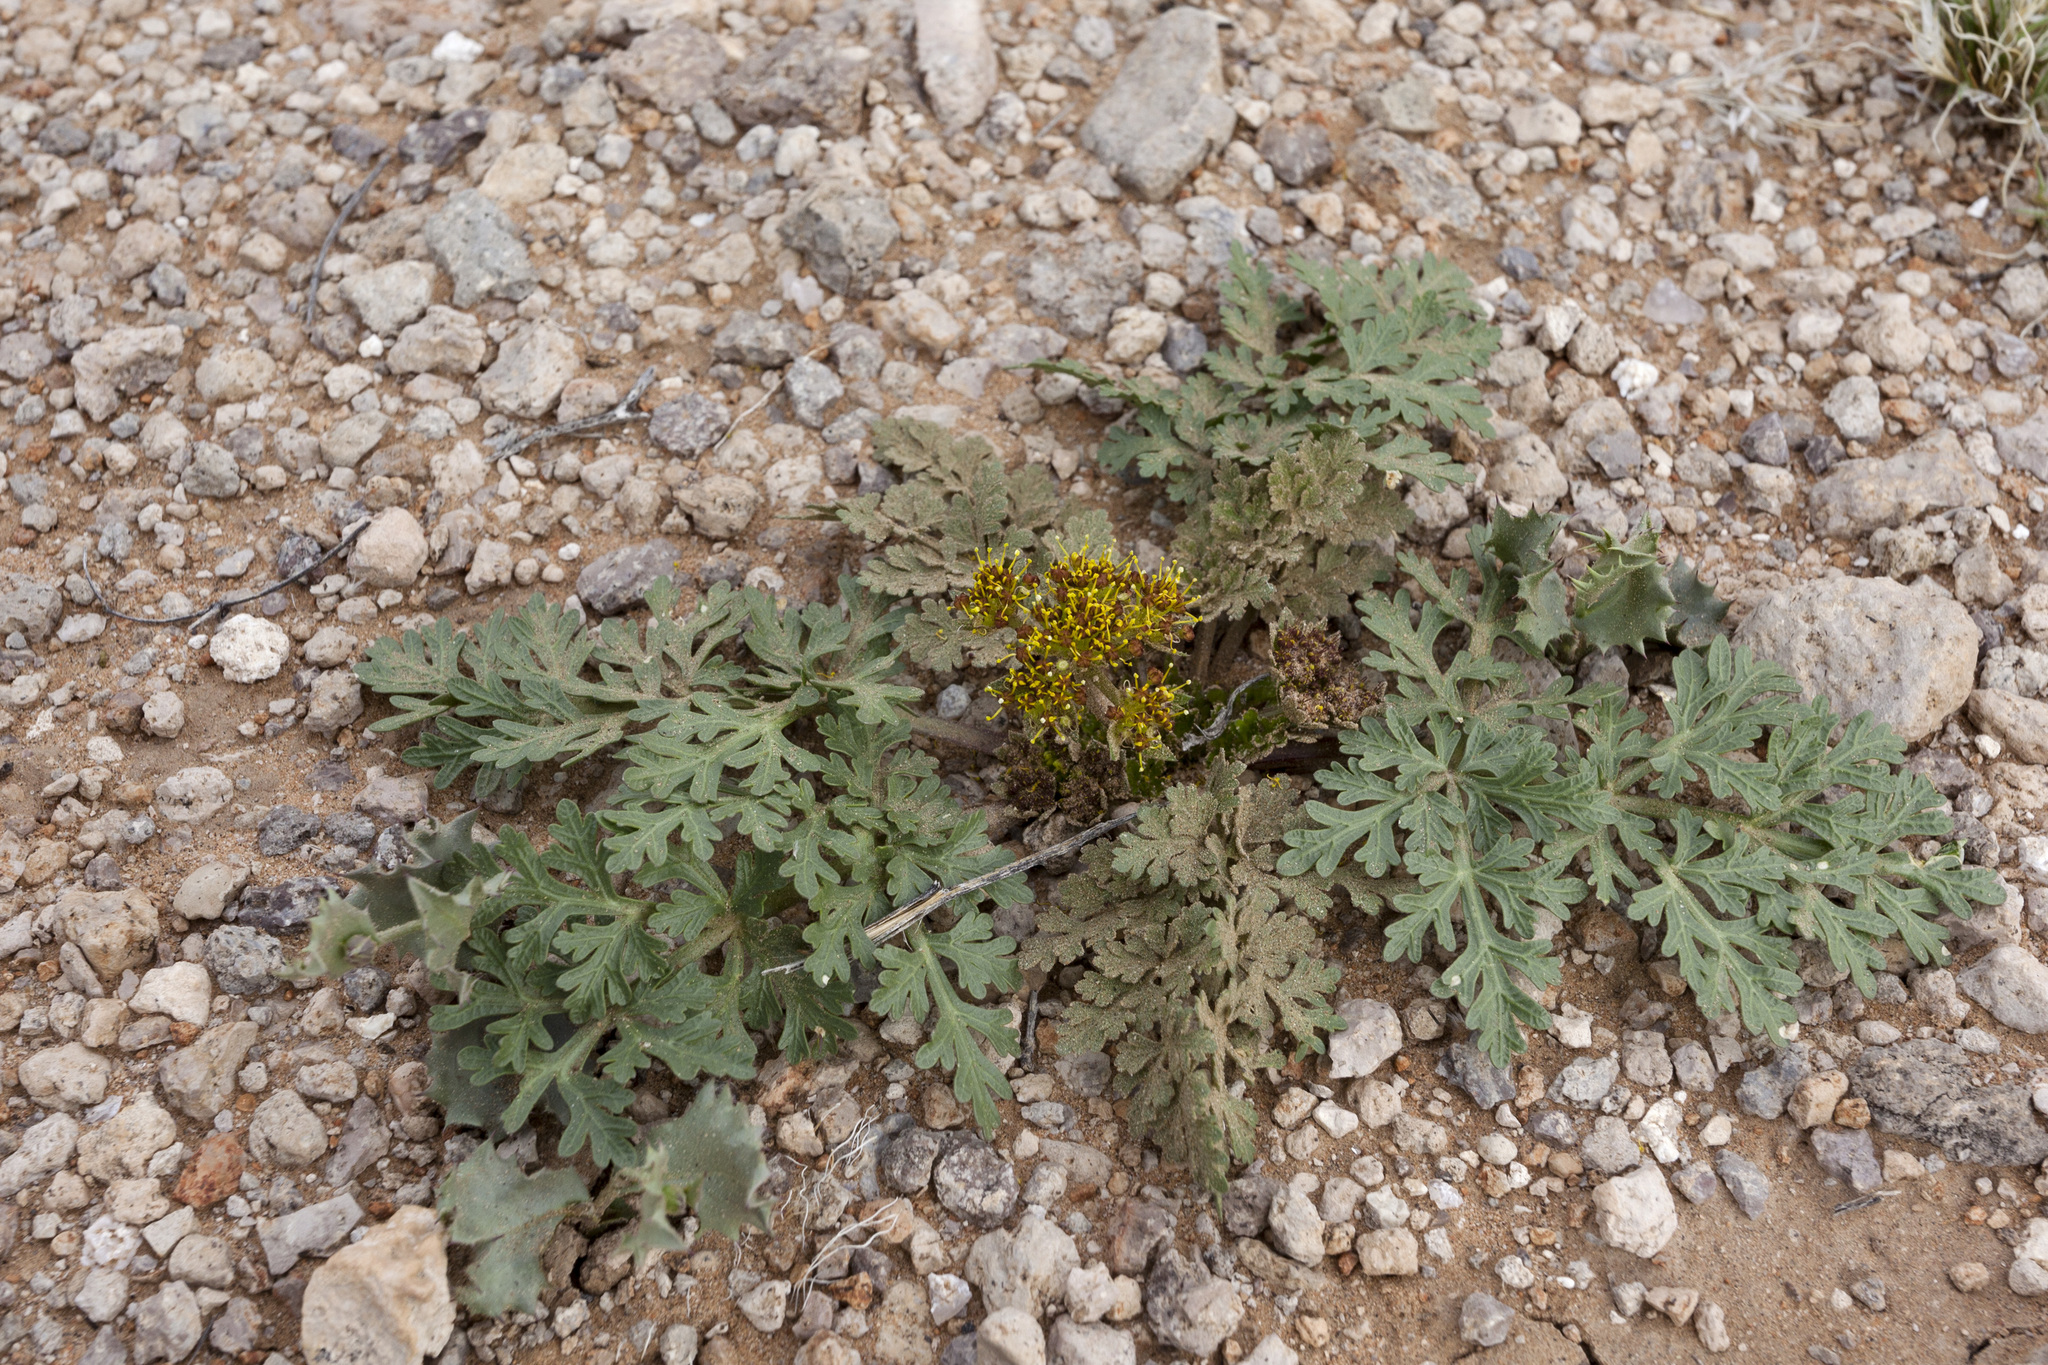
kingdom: Plantae
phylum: Tracheophyta
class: Magnoliopsida
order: Apiales
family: Apiaceae
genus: Cymopterus
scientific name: Cymopterus glomeratus
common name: Plains spring parsley
